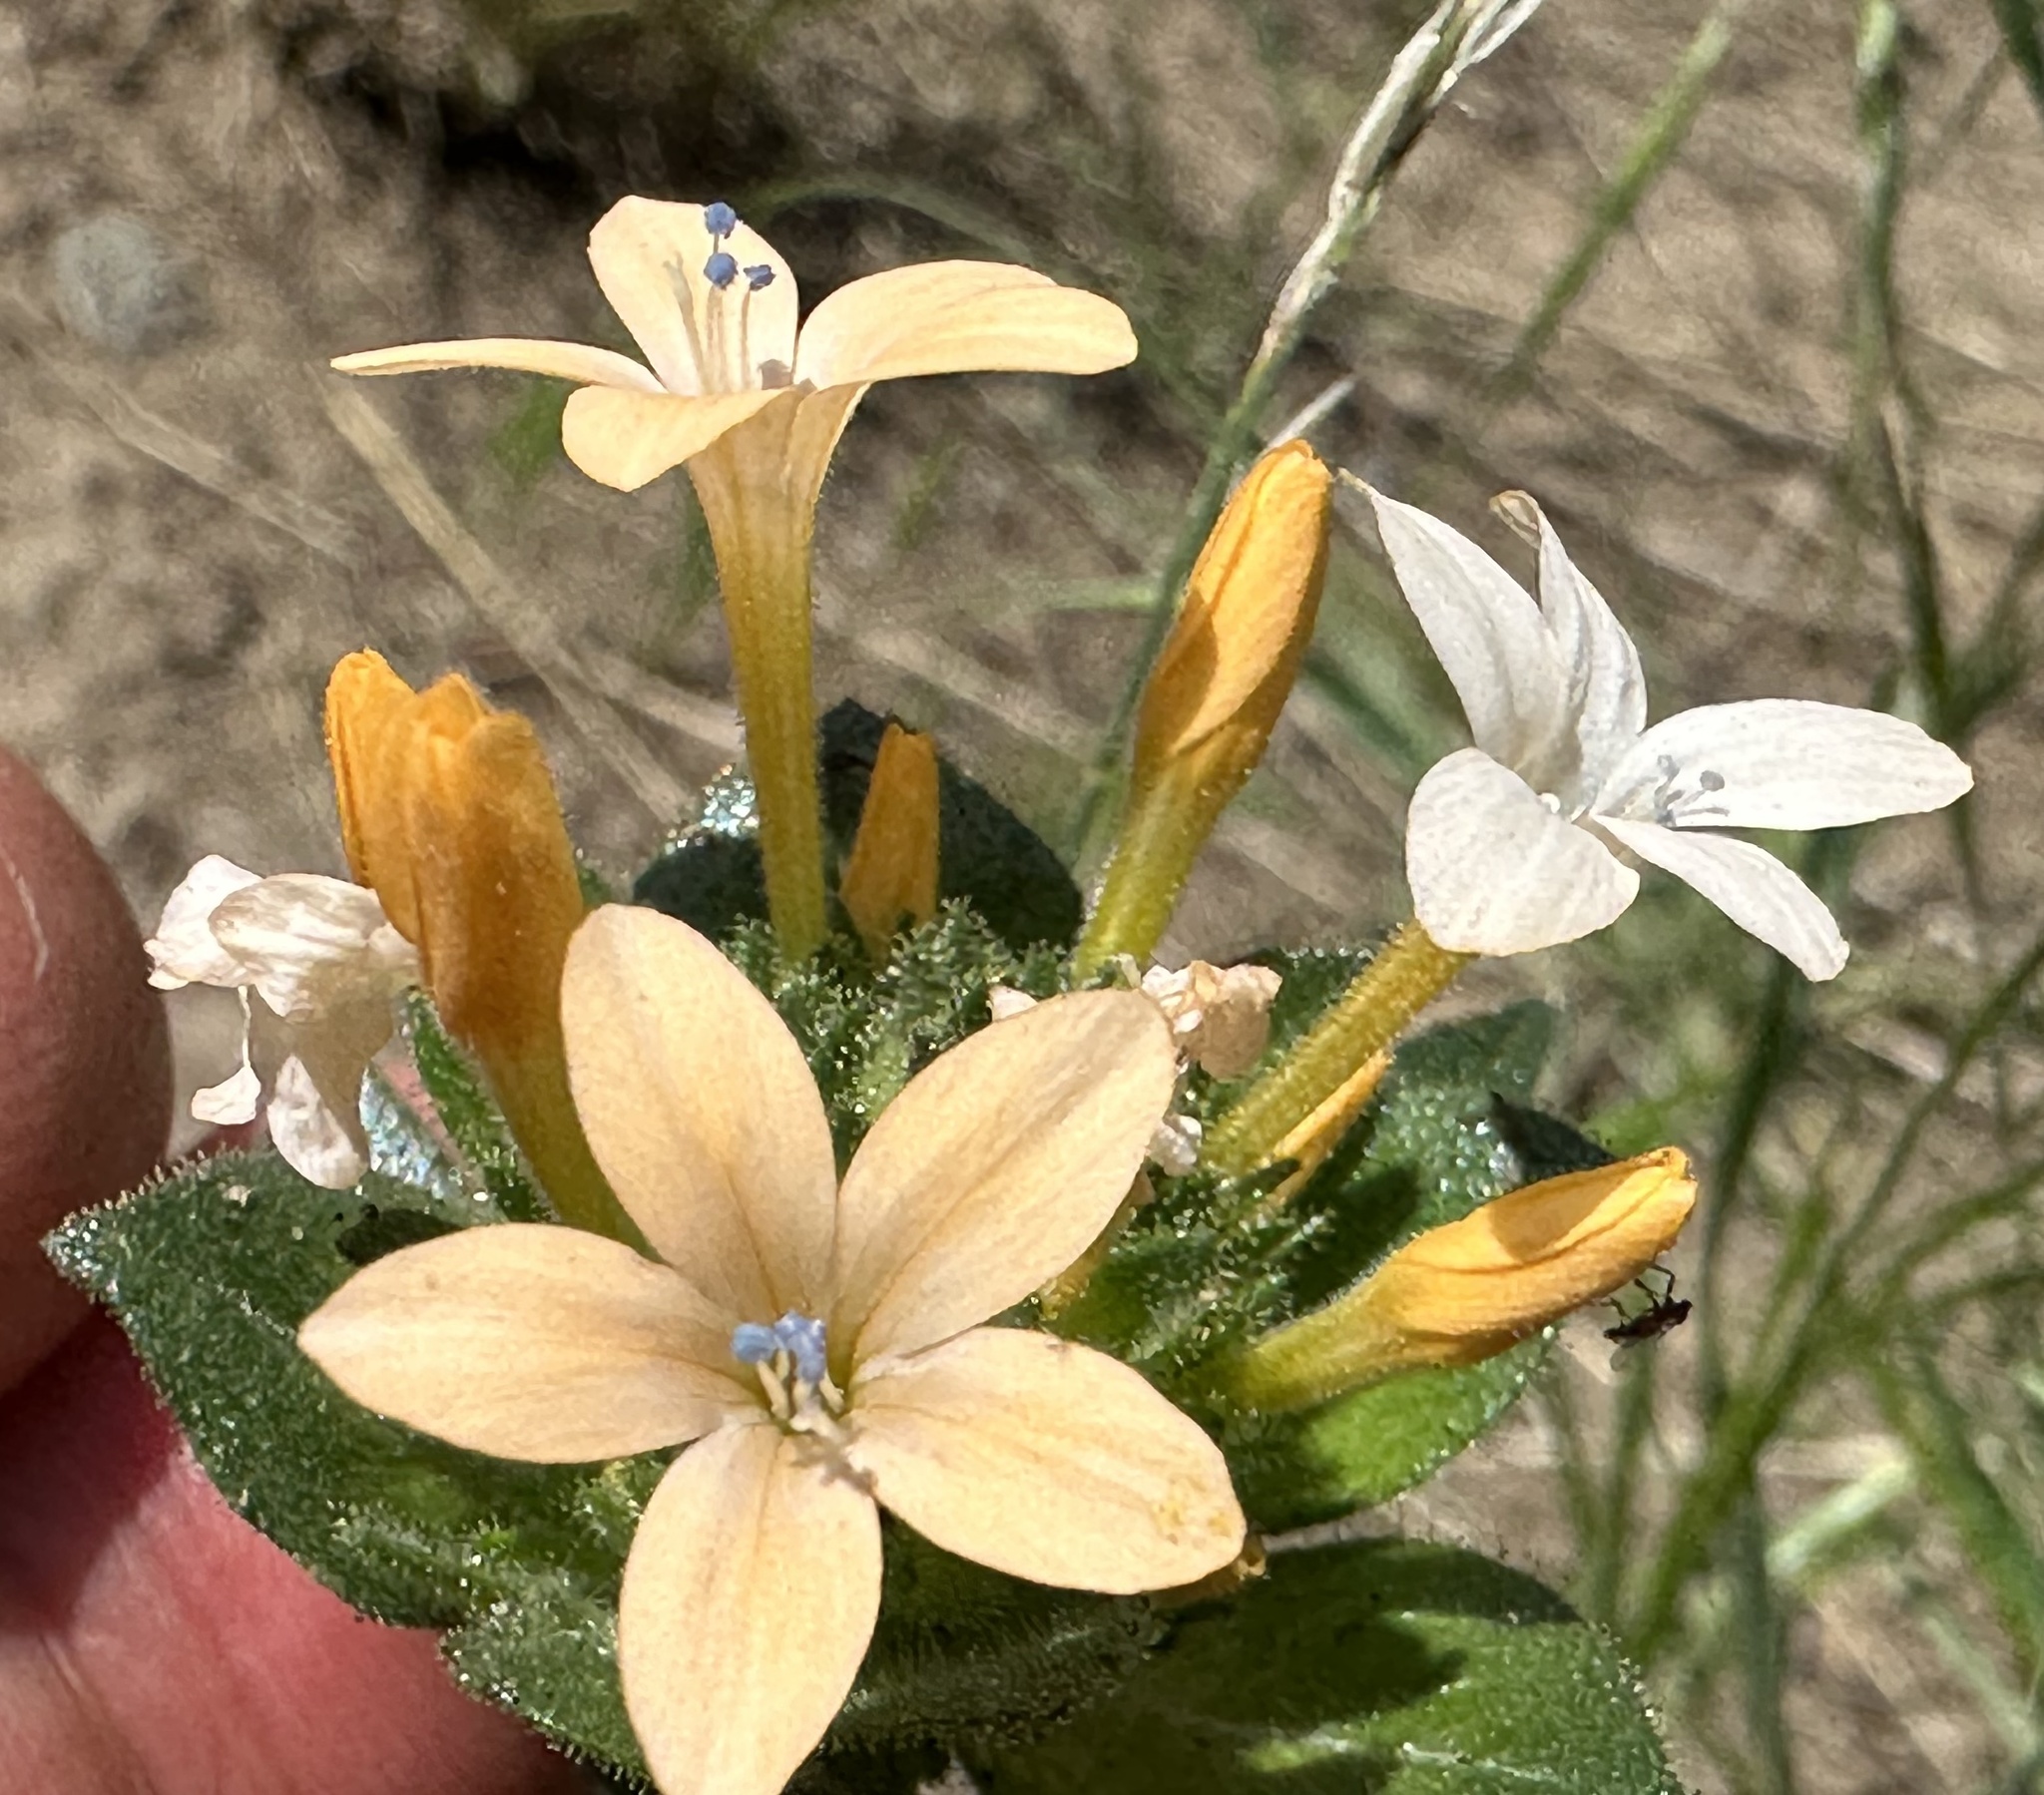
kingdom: Plantae
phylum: Tracheophyta
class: Magnoliopsida
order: Ericales
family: Polemoniaceae
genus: Collomia
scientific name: Collomia grandiflora
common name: California strawflower
